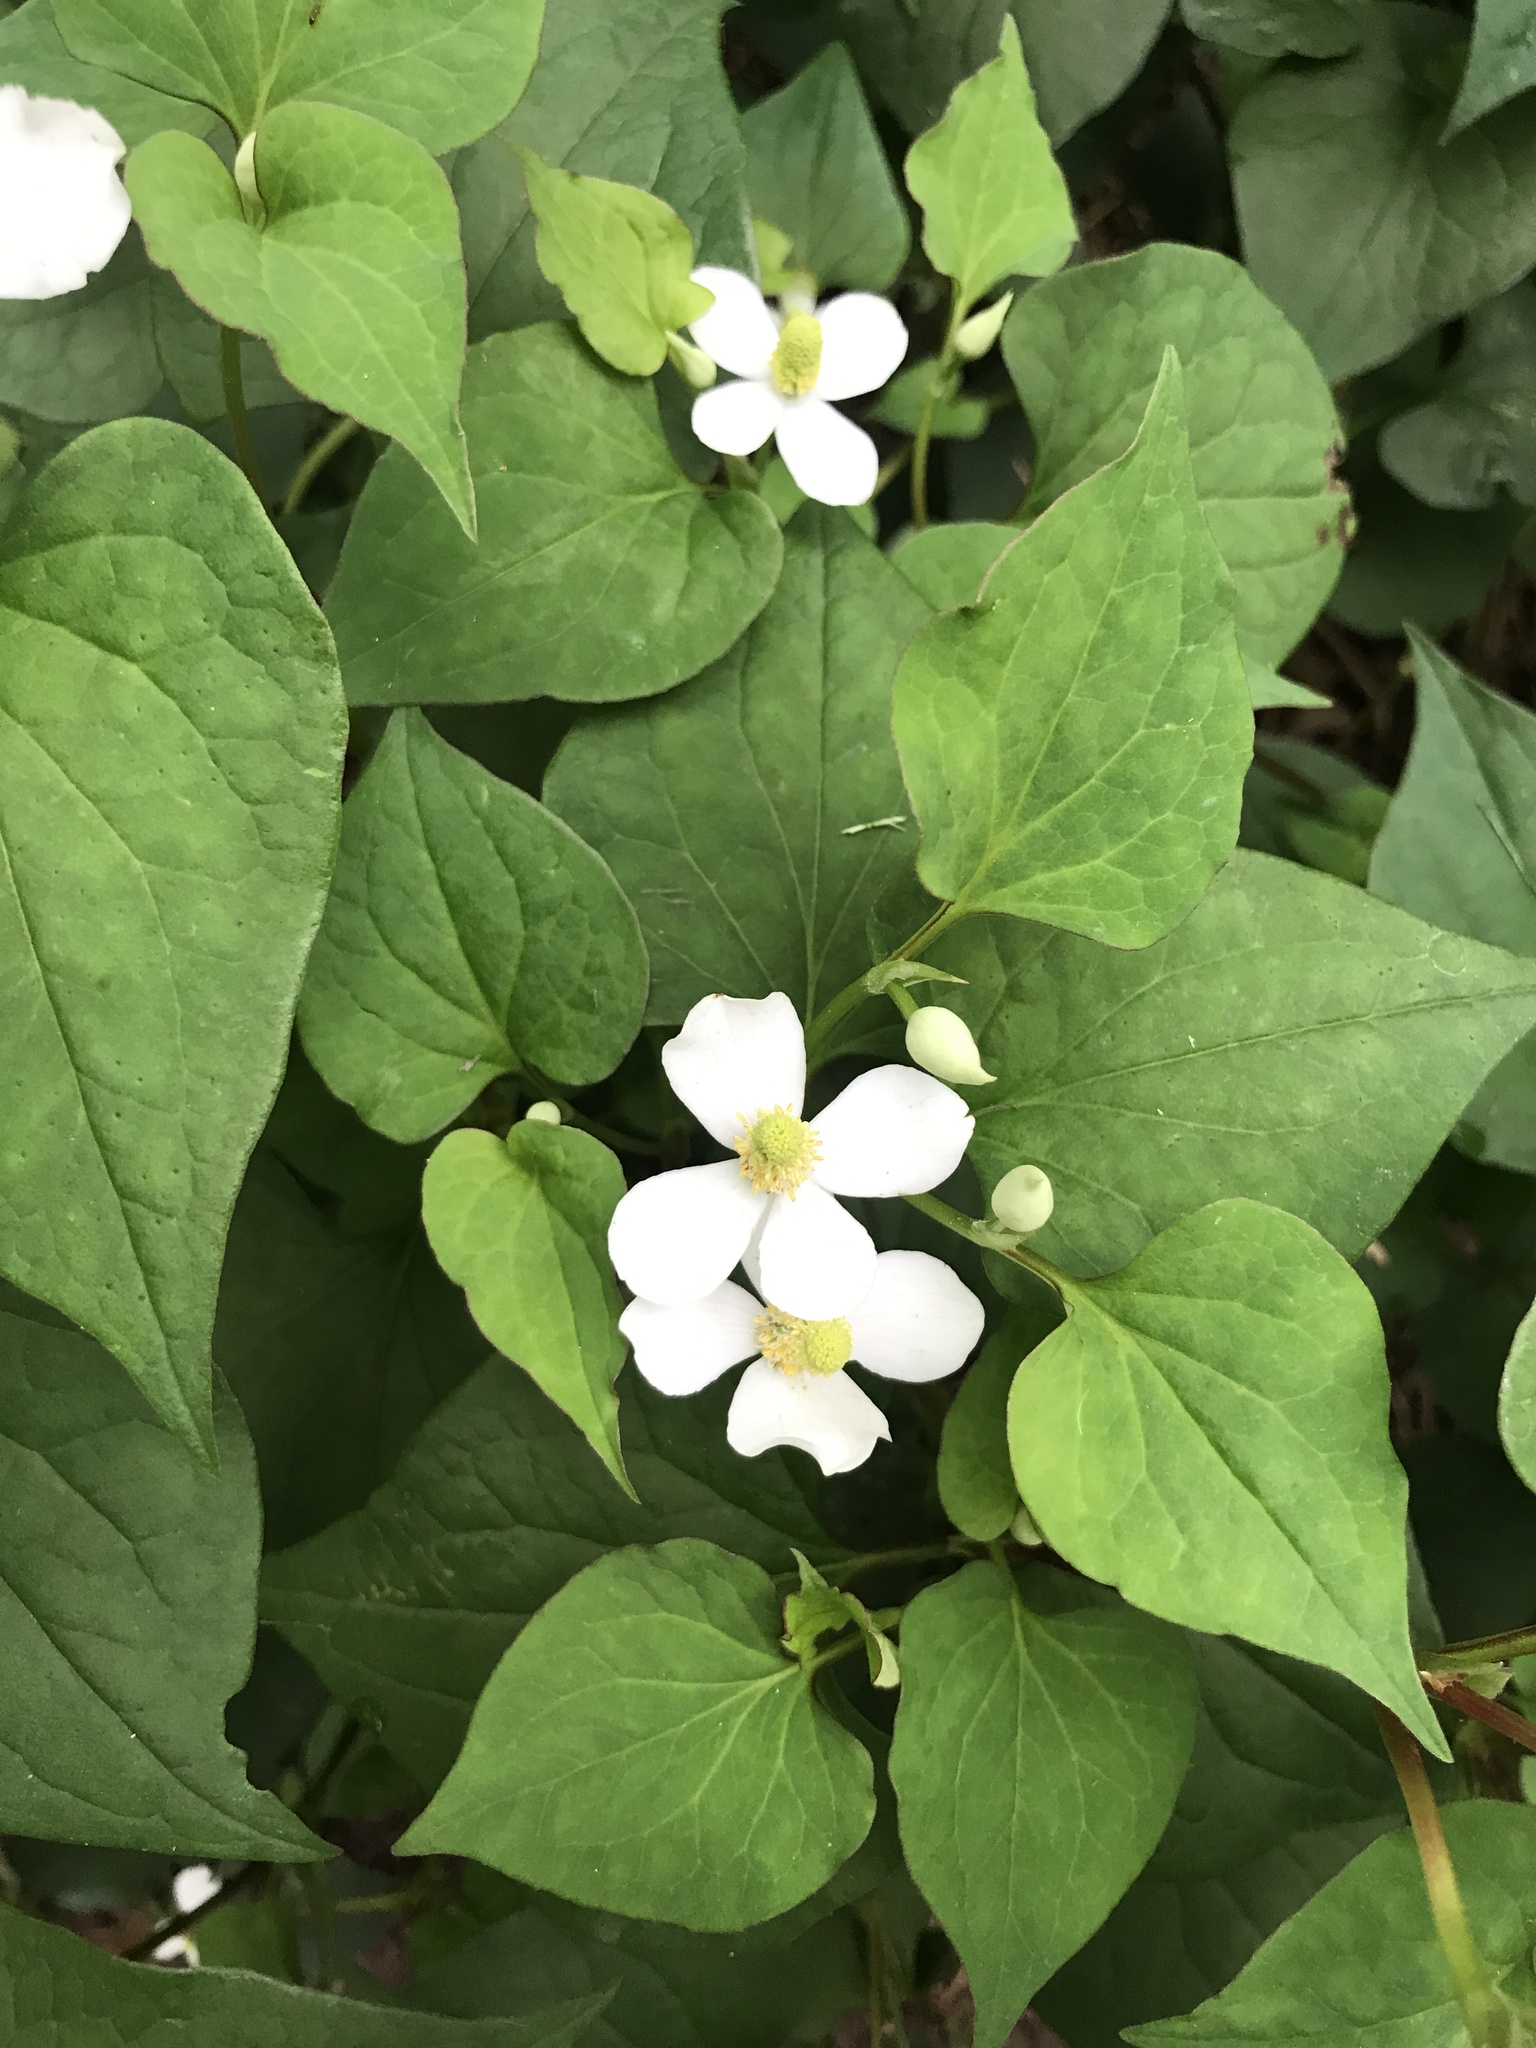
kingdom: Plantae
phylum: Tracheophyta
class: Magnoliopsida
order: Piperales
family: Saururaceae
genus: Houttuynia
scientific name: Houttuynia cordata
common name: Chameleon
